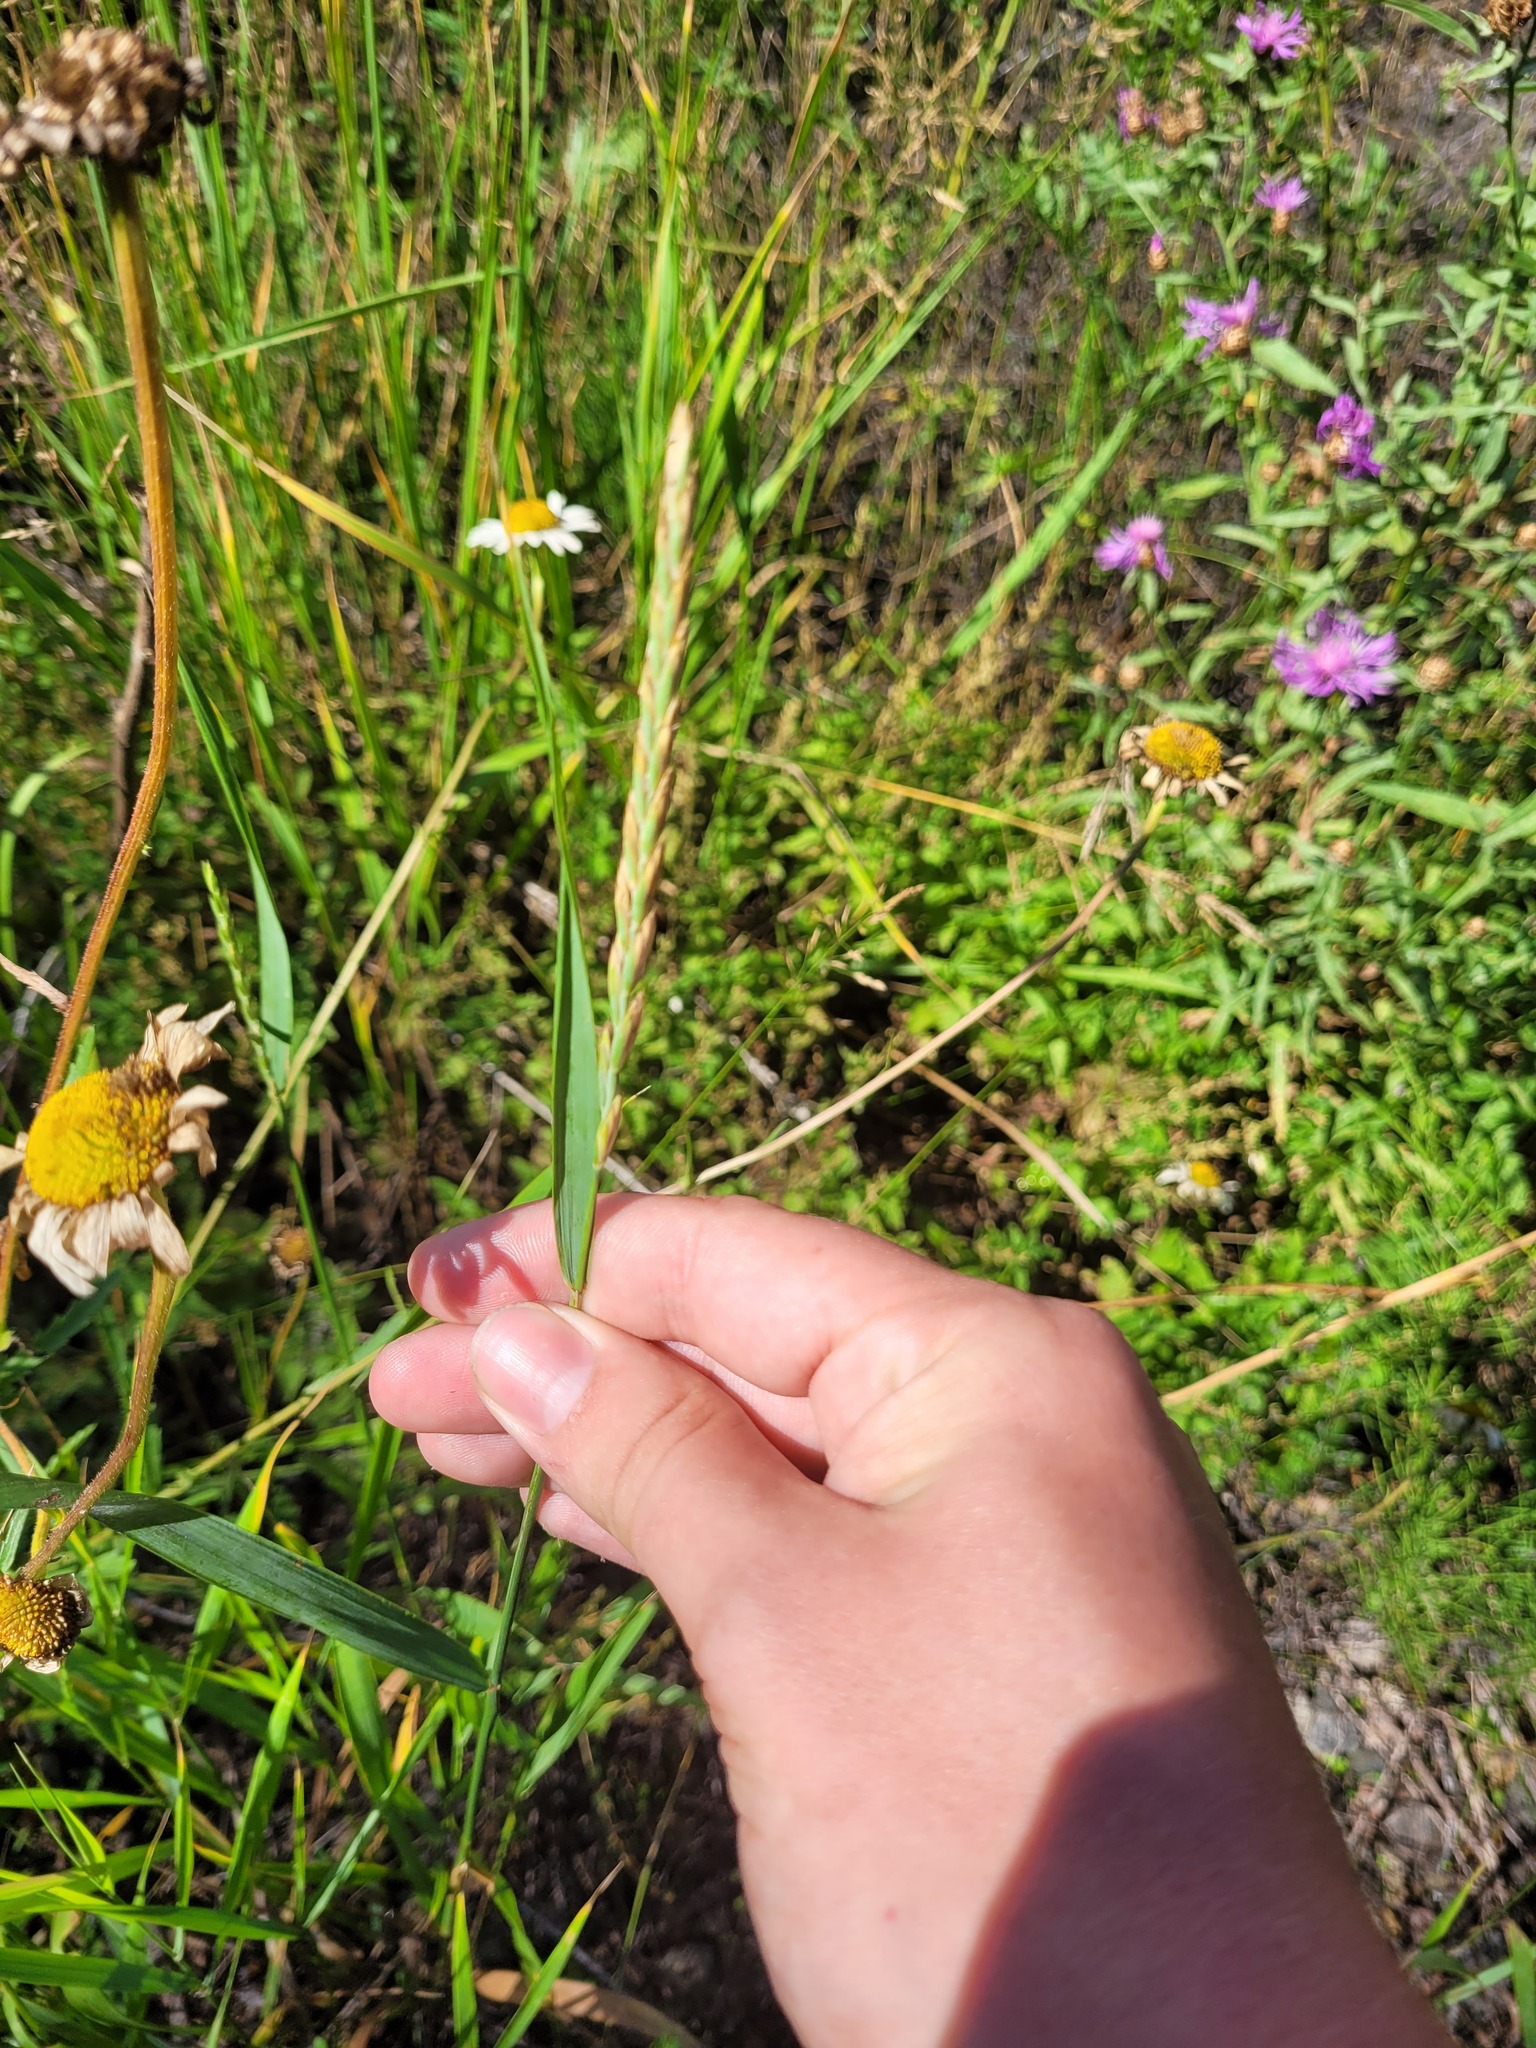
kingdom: Plantae
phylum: Tracheophyta
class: Liliopsida
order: Poales
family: Poaceae
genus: Elymus
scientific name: Elymus repens
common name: Quackgrass
